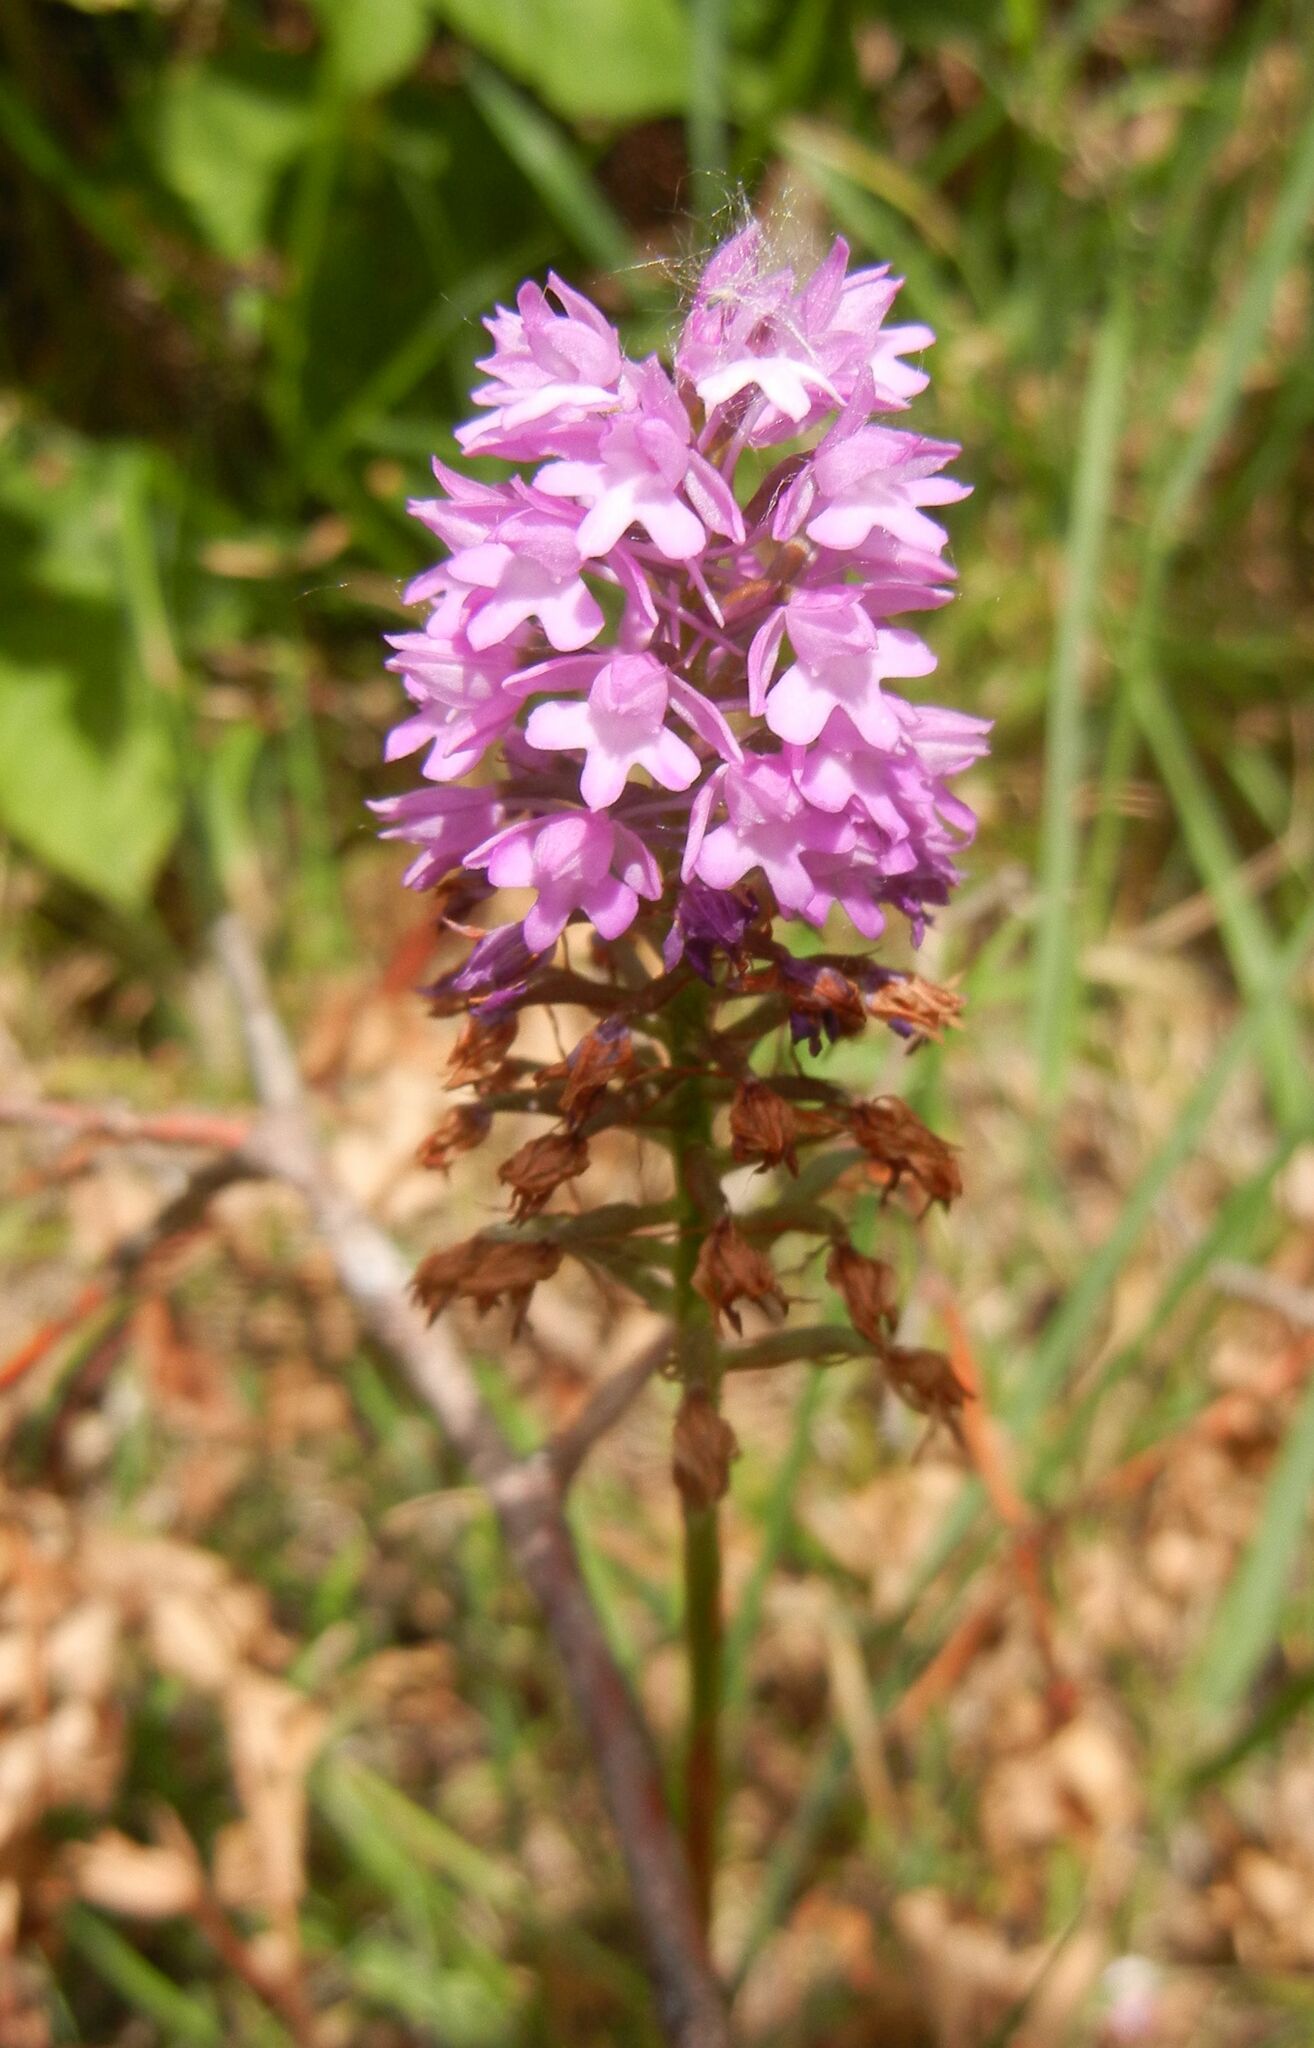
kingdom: Plantae
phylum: Tracheophyta
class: Liliopsida
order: Asparagales
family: Orchidaceae
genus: Anacamptis
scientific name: Anacamptis pyramidalis
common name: Pyramidal orchid
